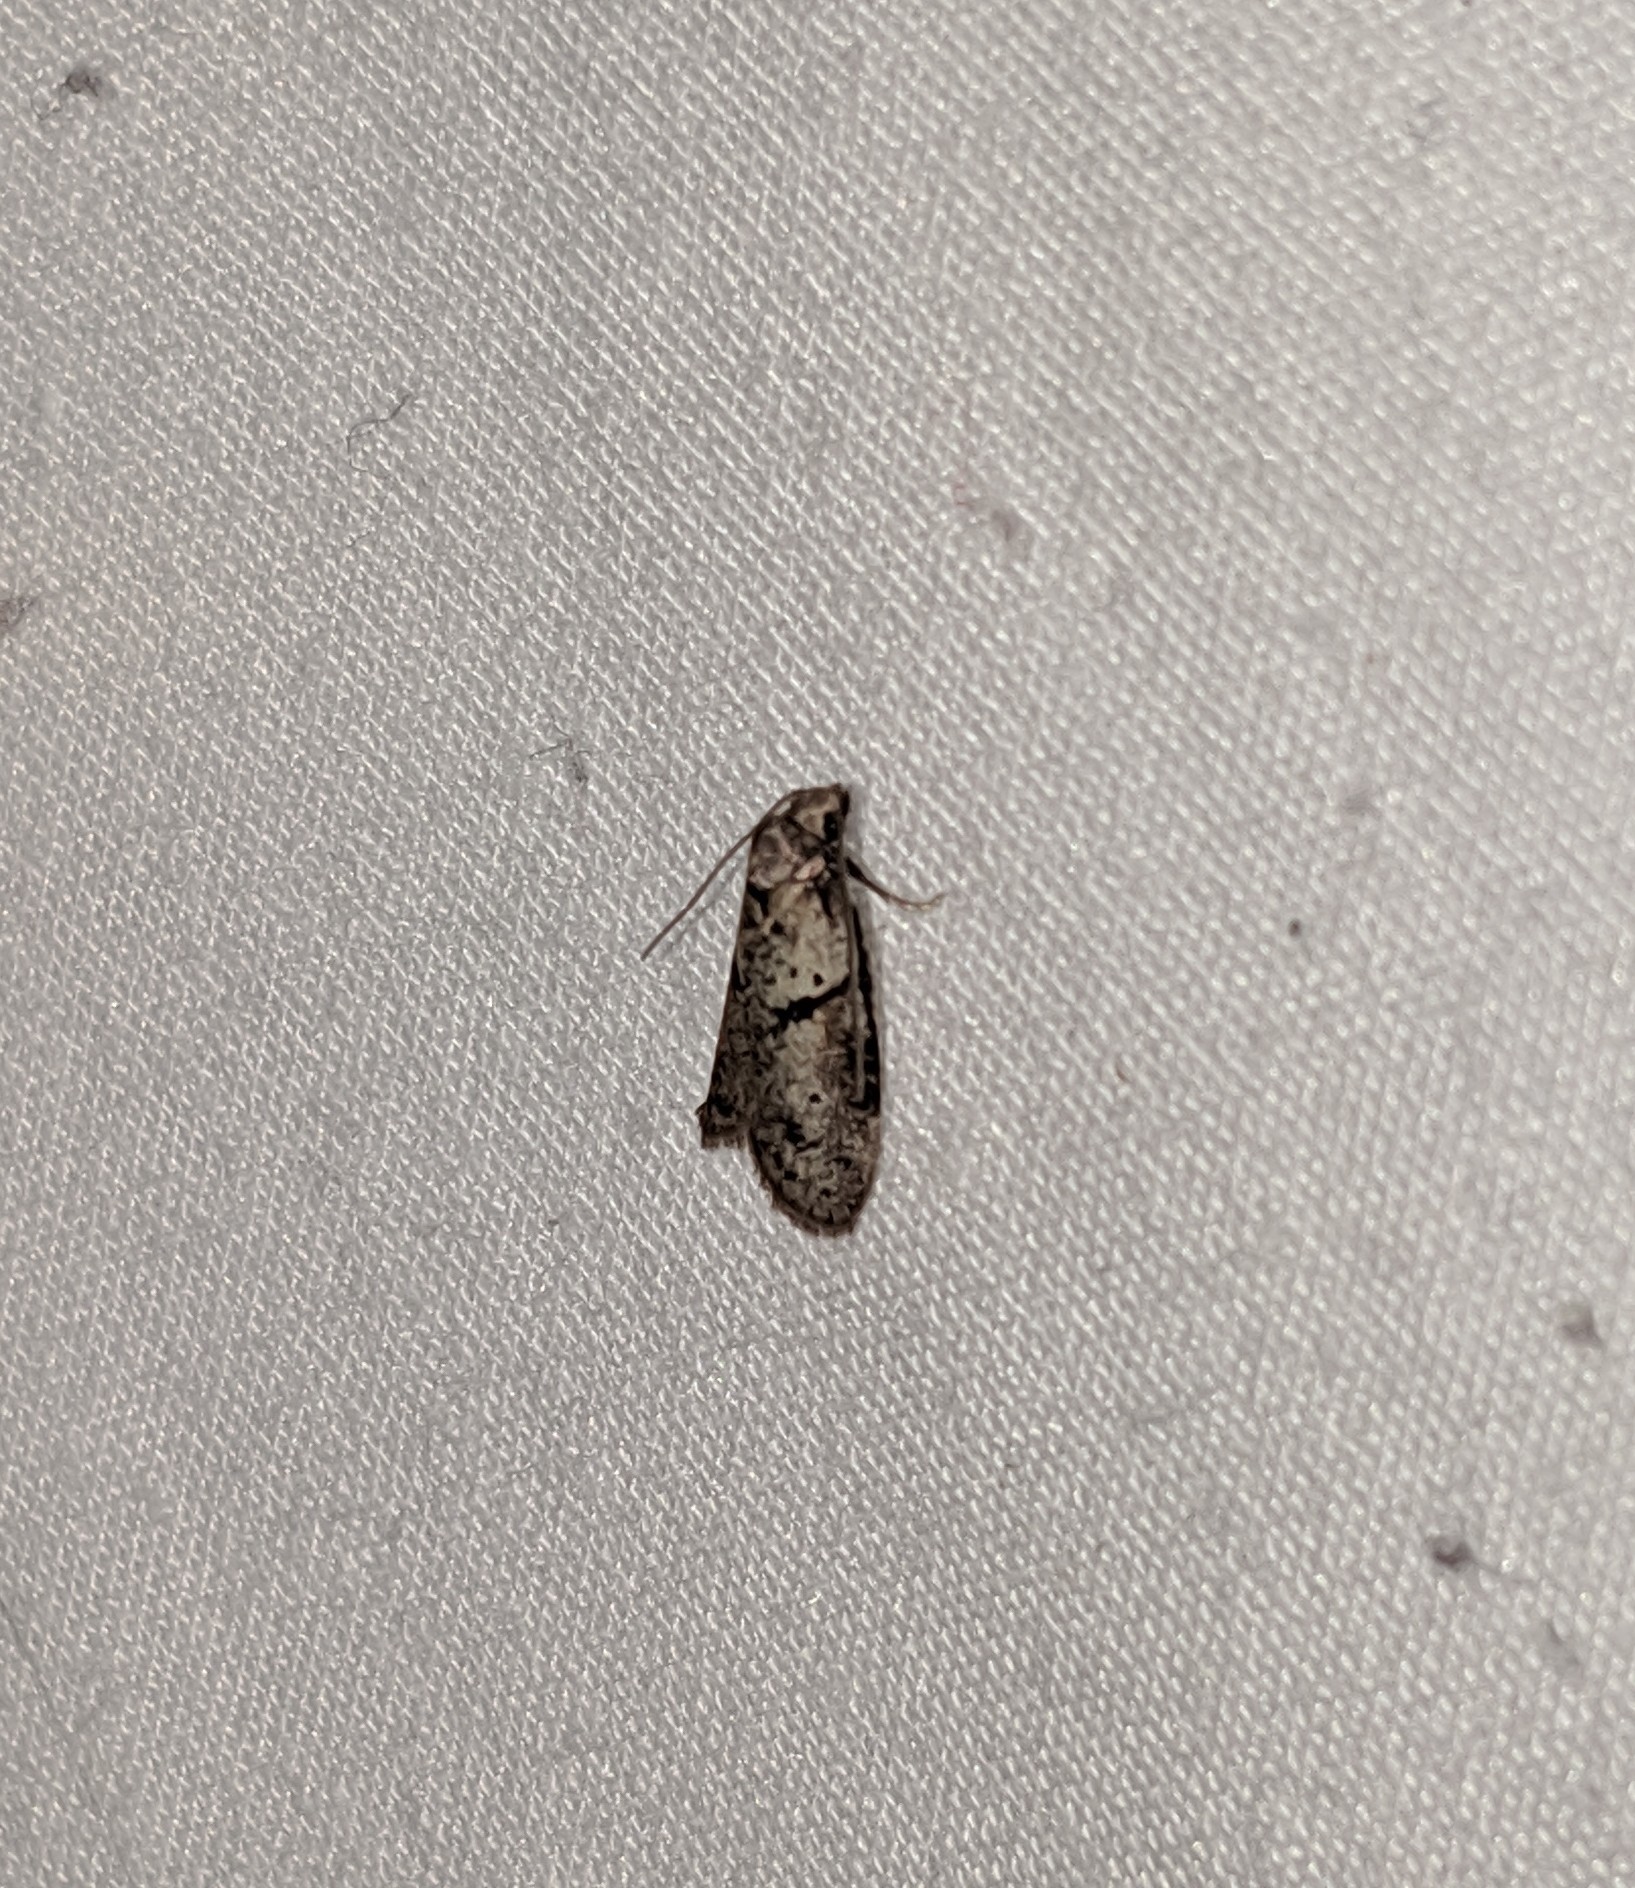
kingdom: Animalia
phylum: Arthropoda
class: Insecta
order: Lepidoptera
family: Copromorphidae
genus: Lotisma
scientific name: Lotisma trigonana
